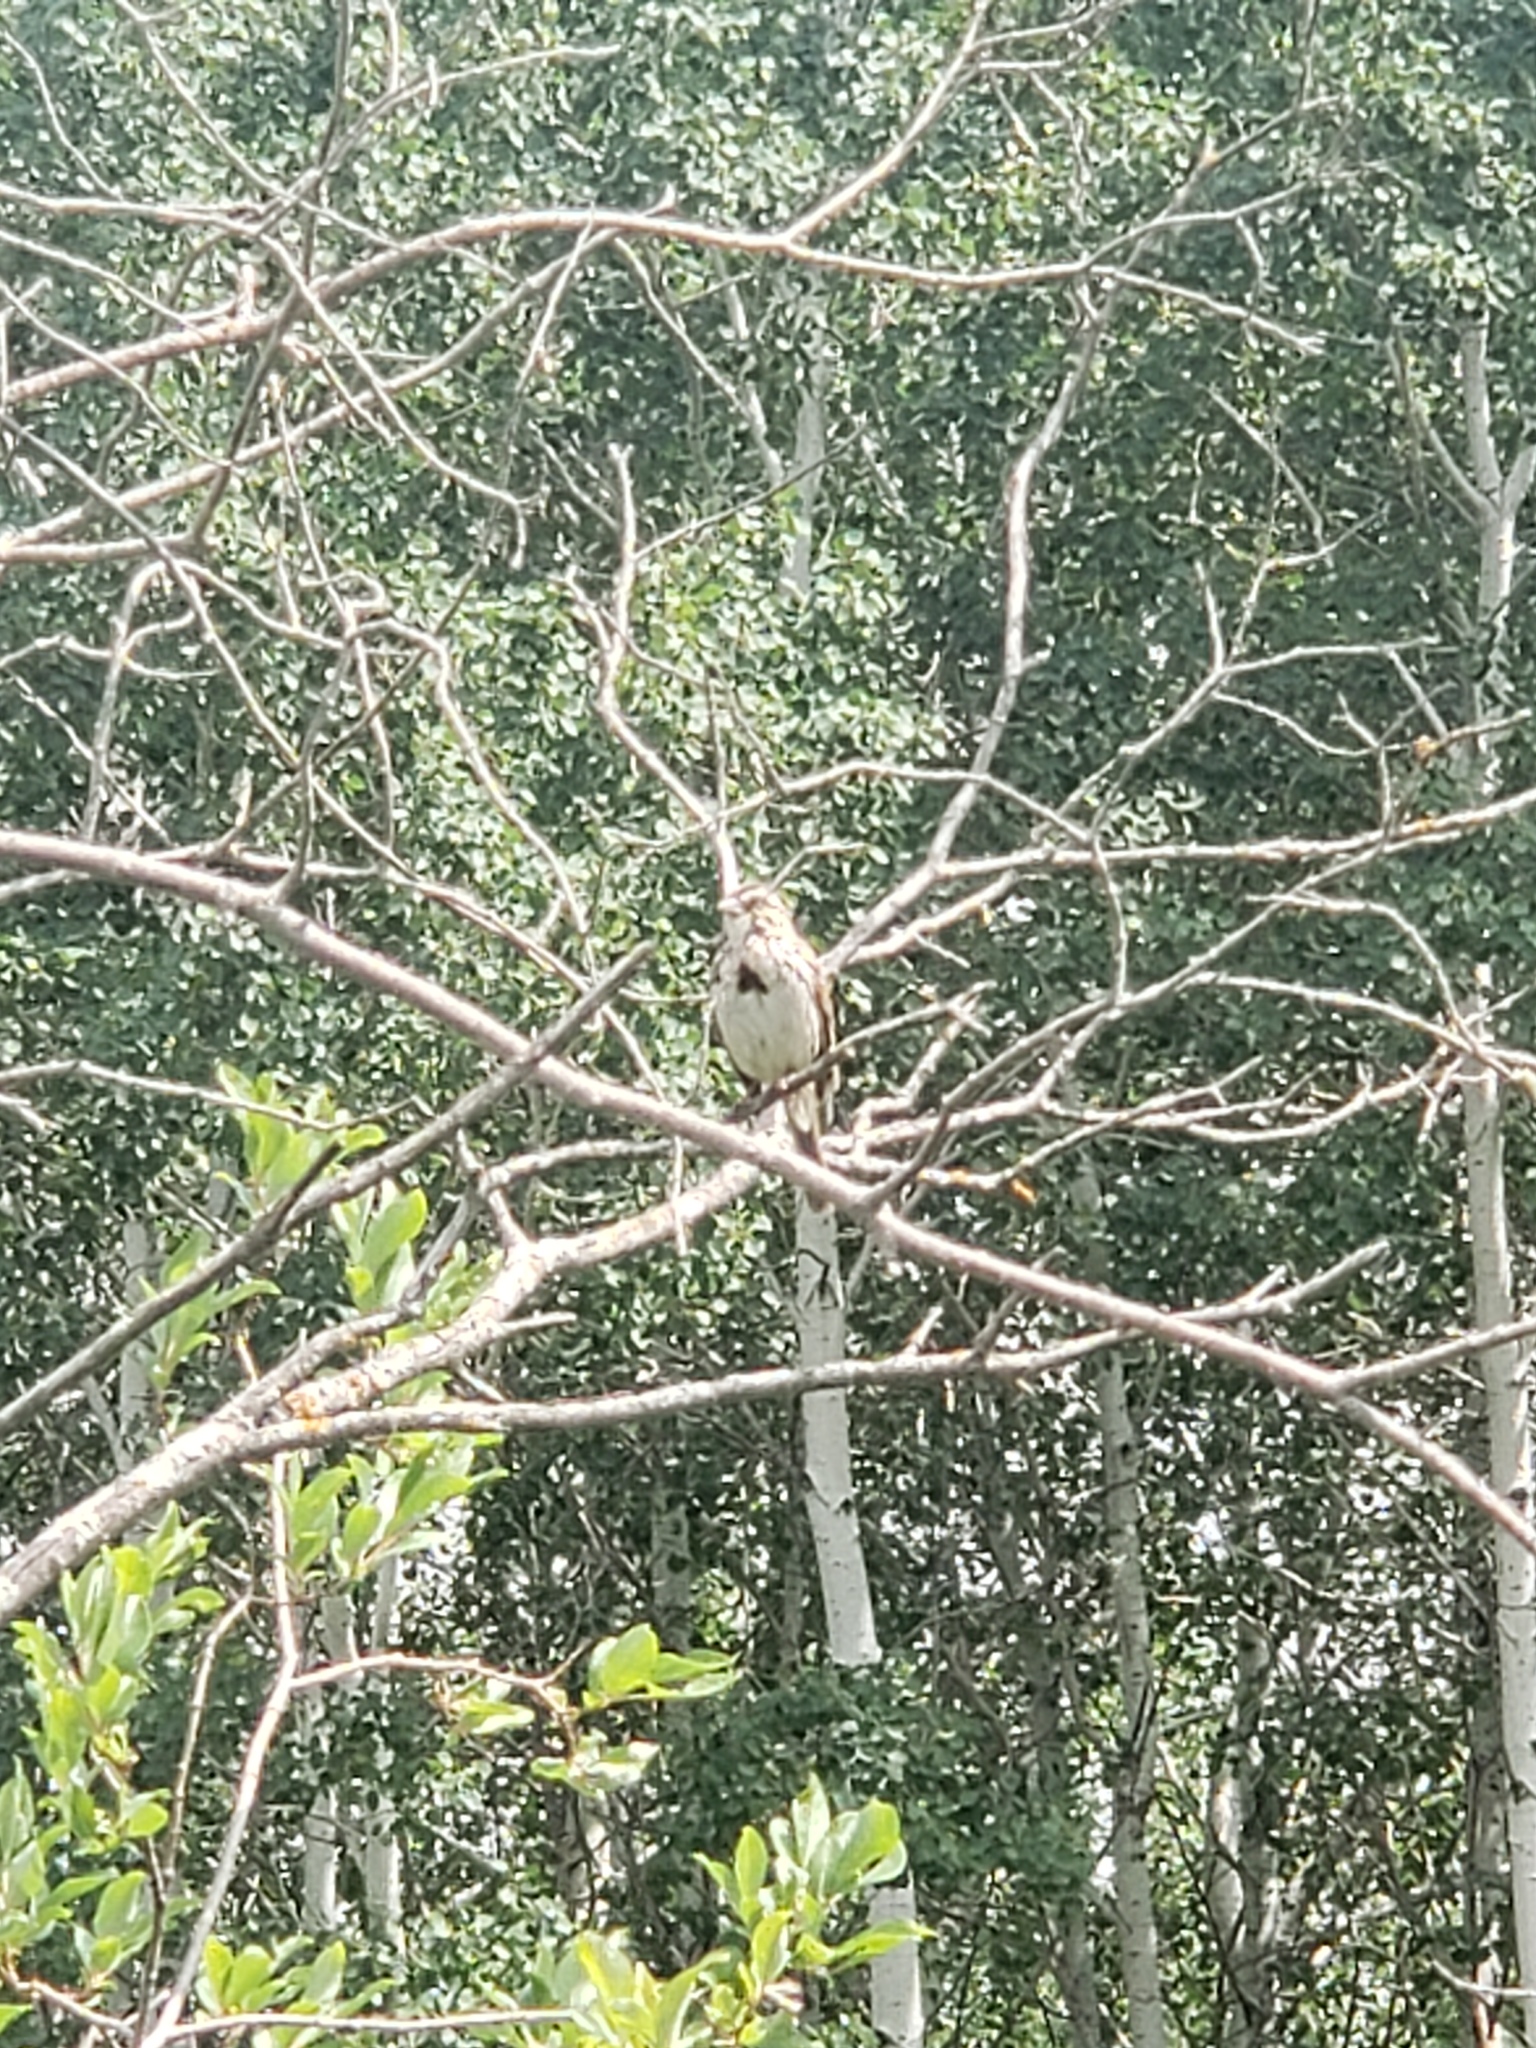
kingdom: Animalia
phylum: Chordata
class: Aves
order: Passeriformes
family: Passerellidae
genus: Melospiza
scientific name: Melospiza melodia
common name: Song sparrow
